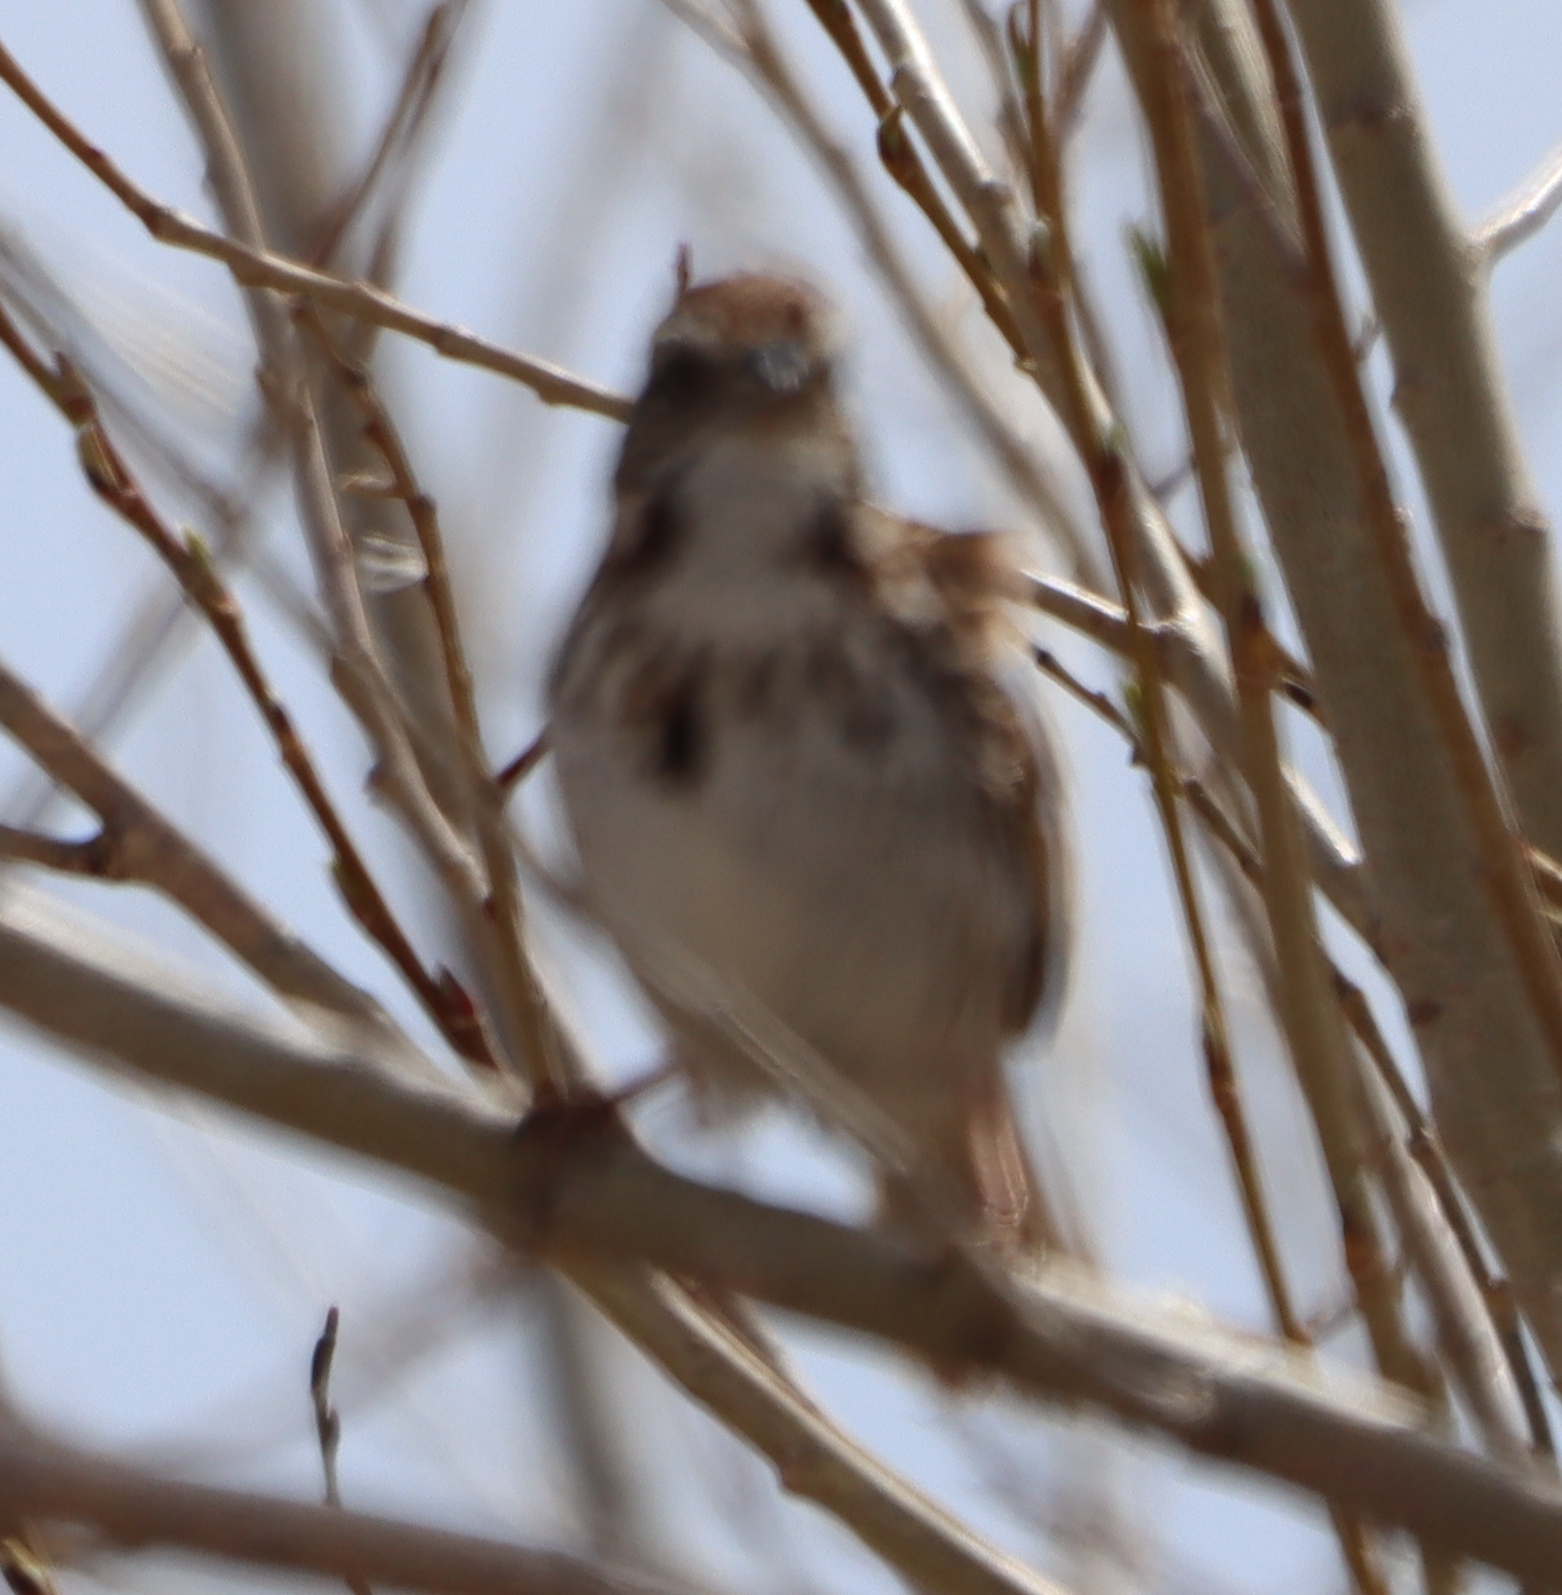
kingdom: Animalia
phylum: Chordata
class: Aves
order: Passeriformes
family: Passerellidae
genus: Melospiza
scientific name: Melospiza melodia
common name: Song sparrow
